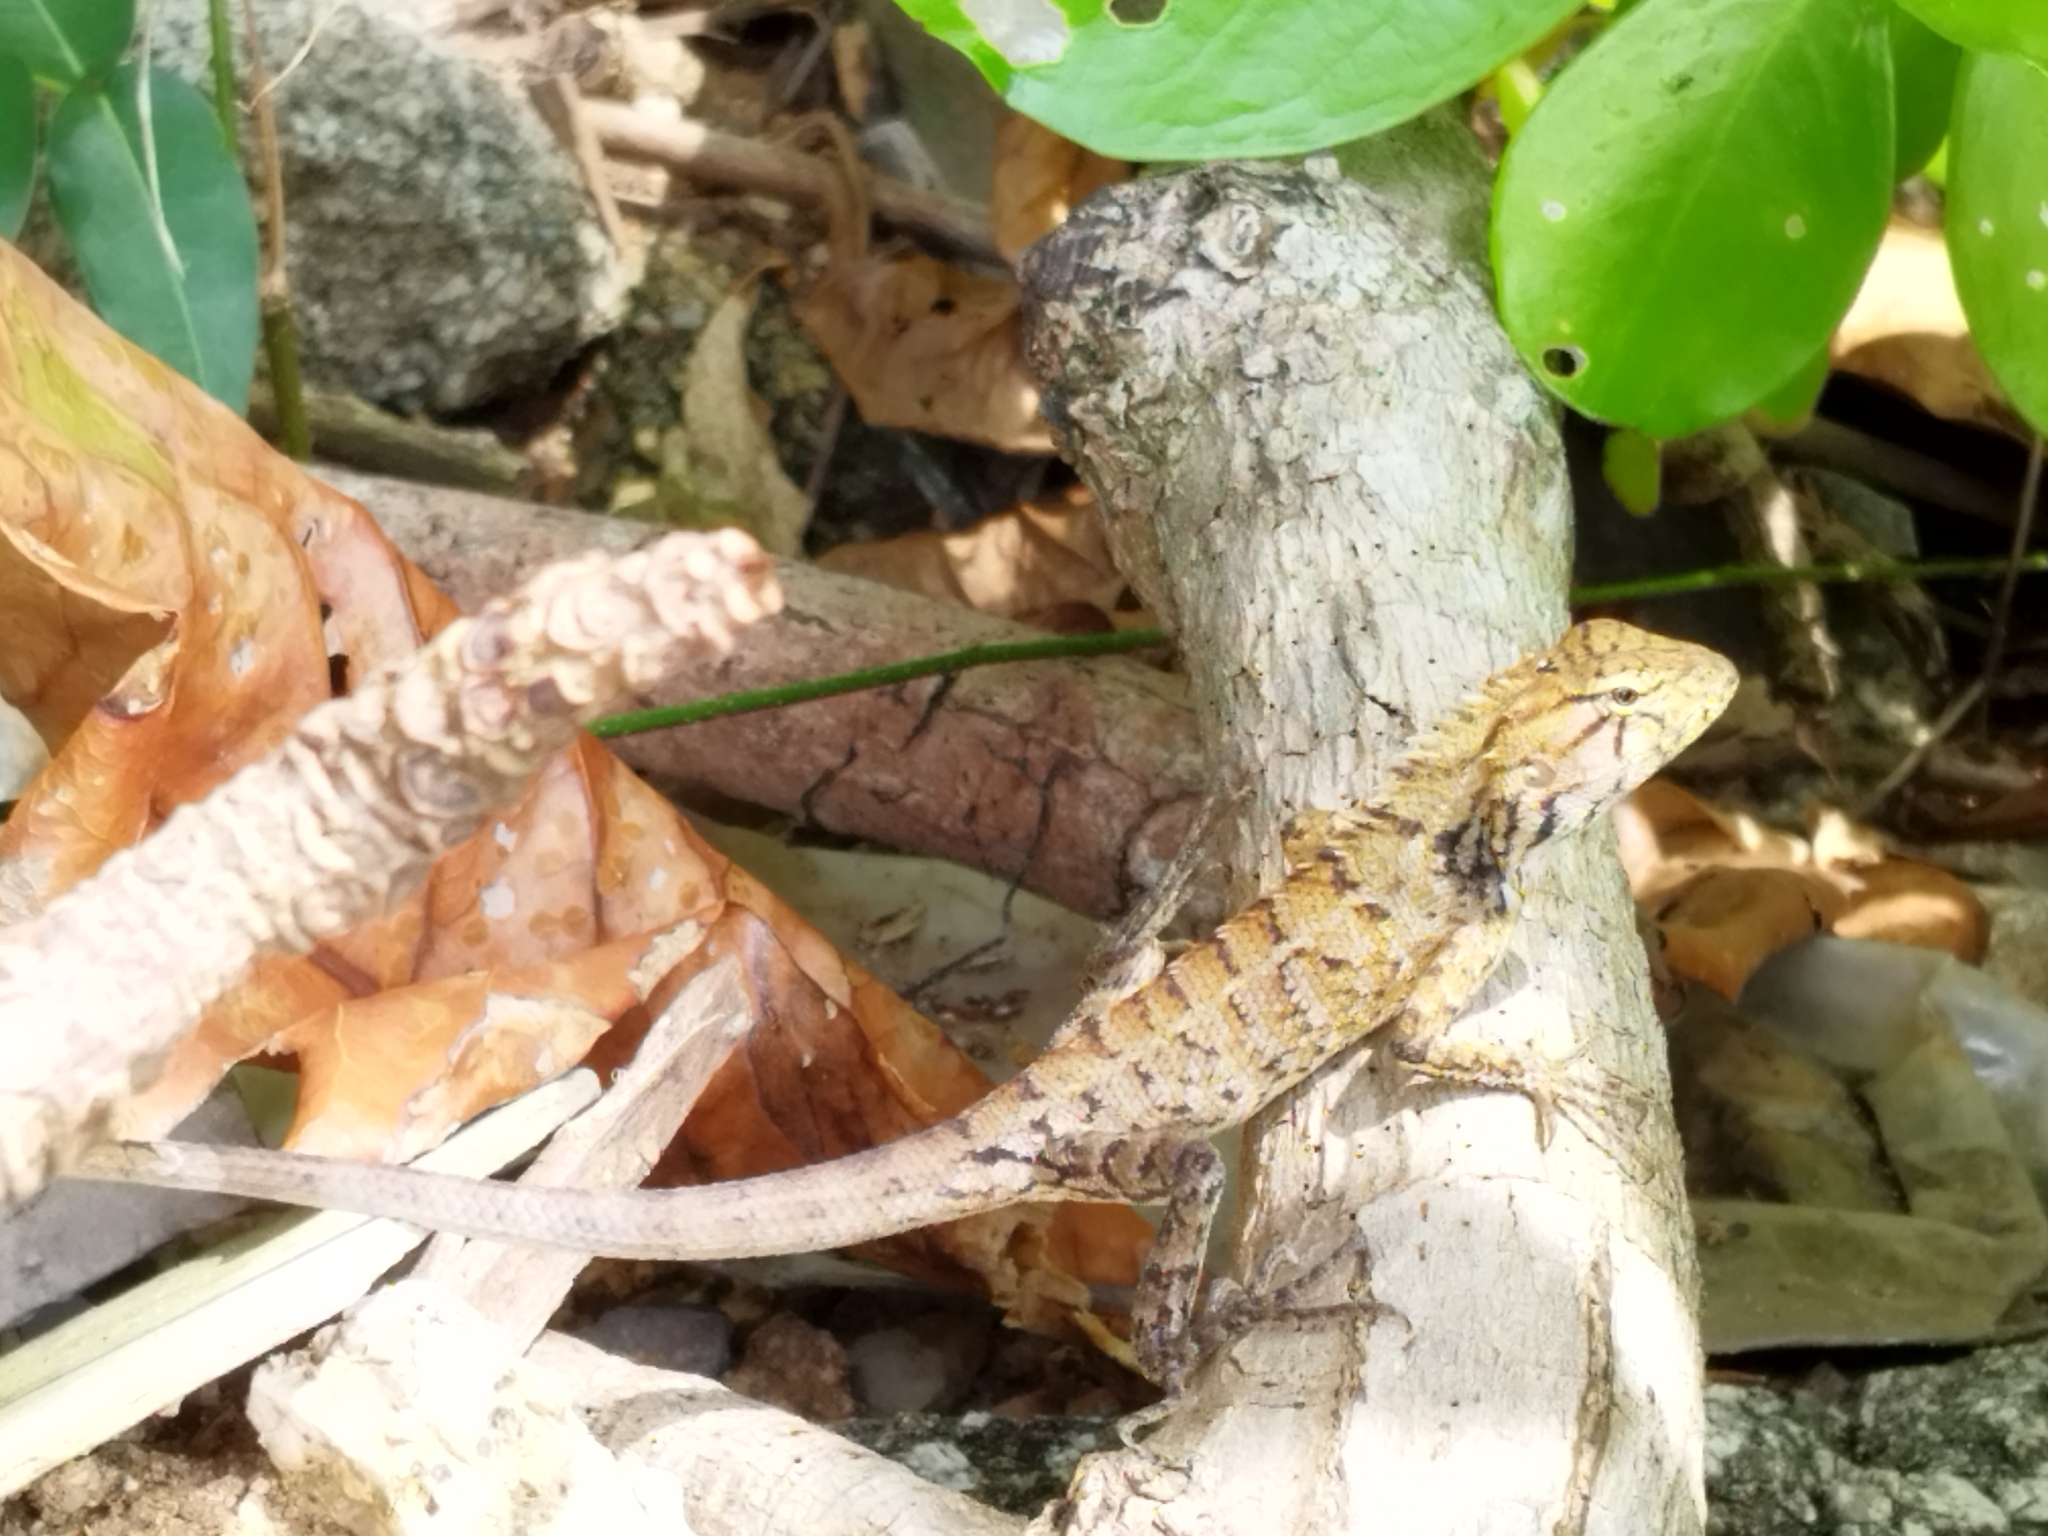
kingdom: Animalia
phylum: Chordata
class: Squamata
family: Agamidae
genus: Calotes
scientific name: Calotes versicolor
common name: Oriental garden lizard
